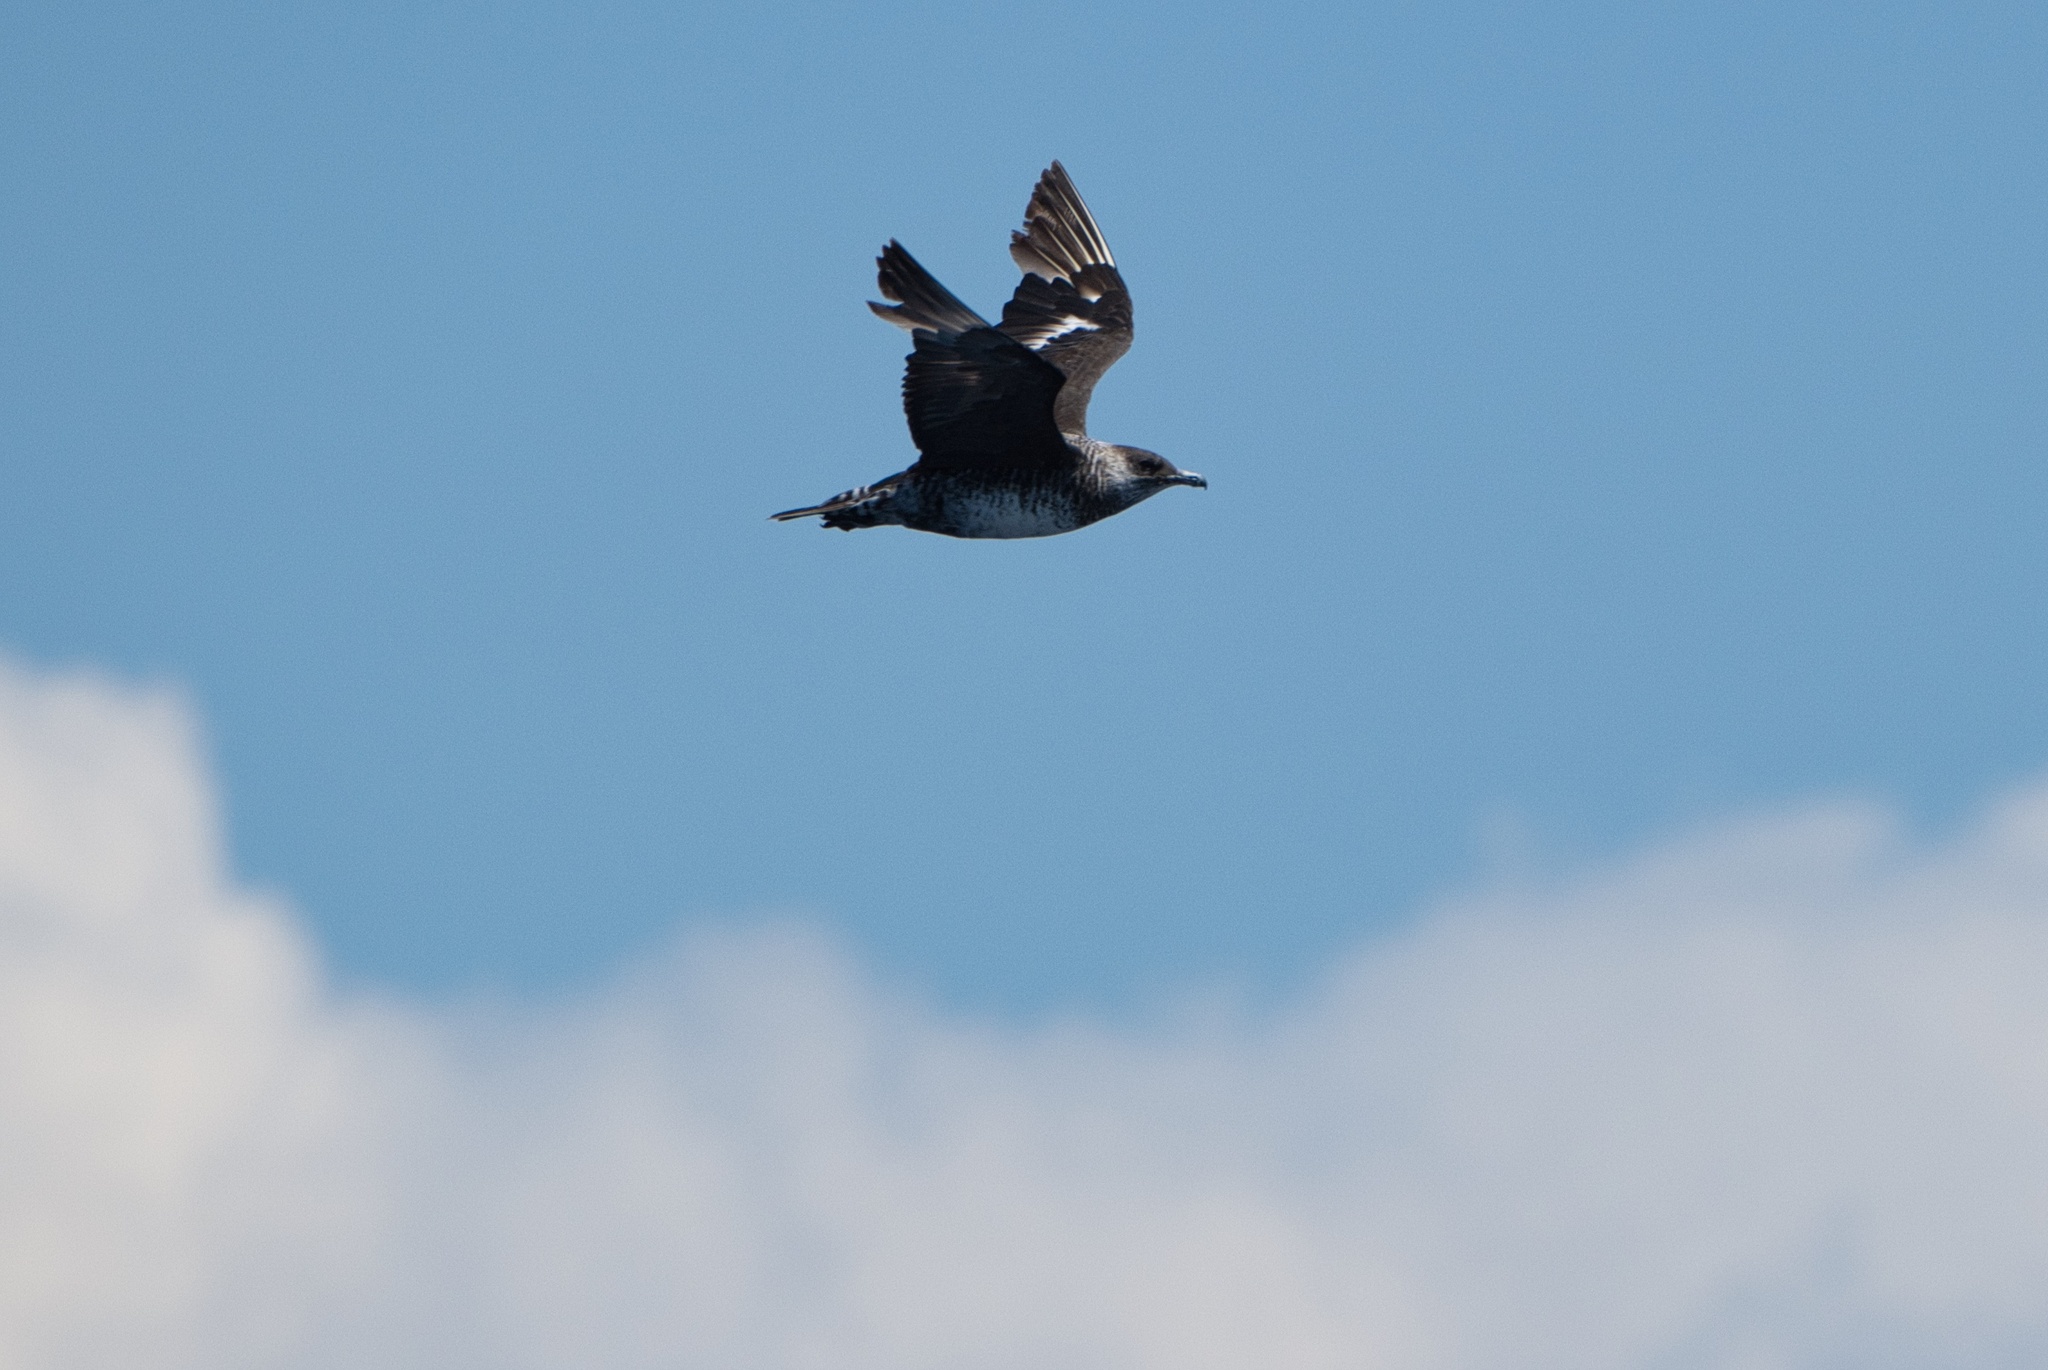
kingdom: Animalia
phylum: Chordata
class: Aves
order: Charadriiformes
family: Stercorariidae
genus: Stercorarius
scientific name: Stercorarius pomarinus
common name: Pomarine jaeger
